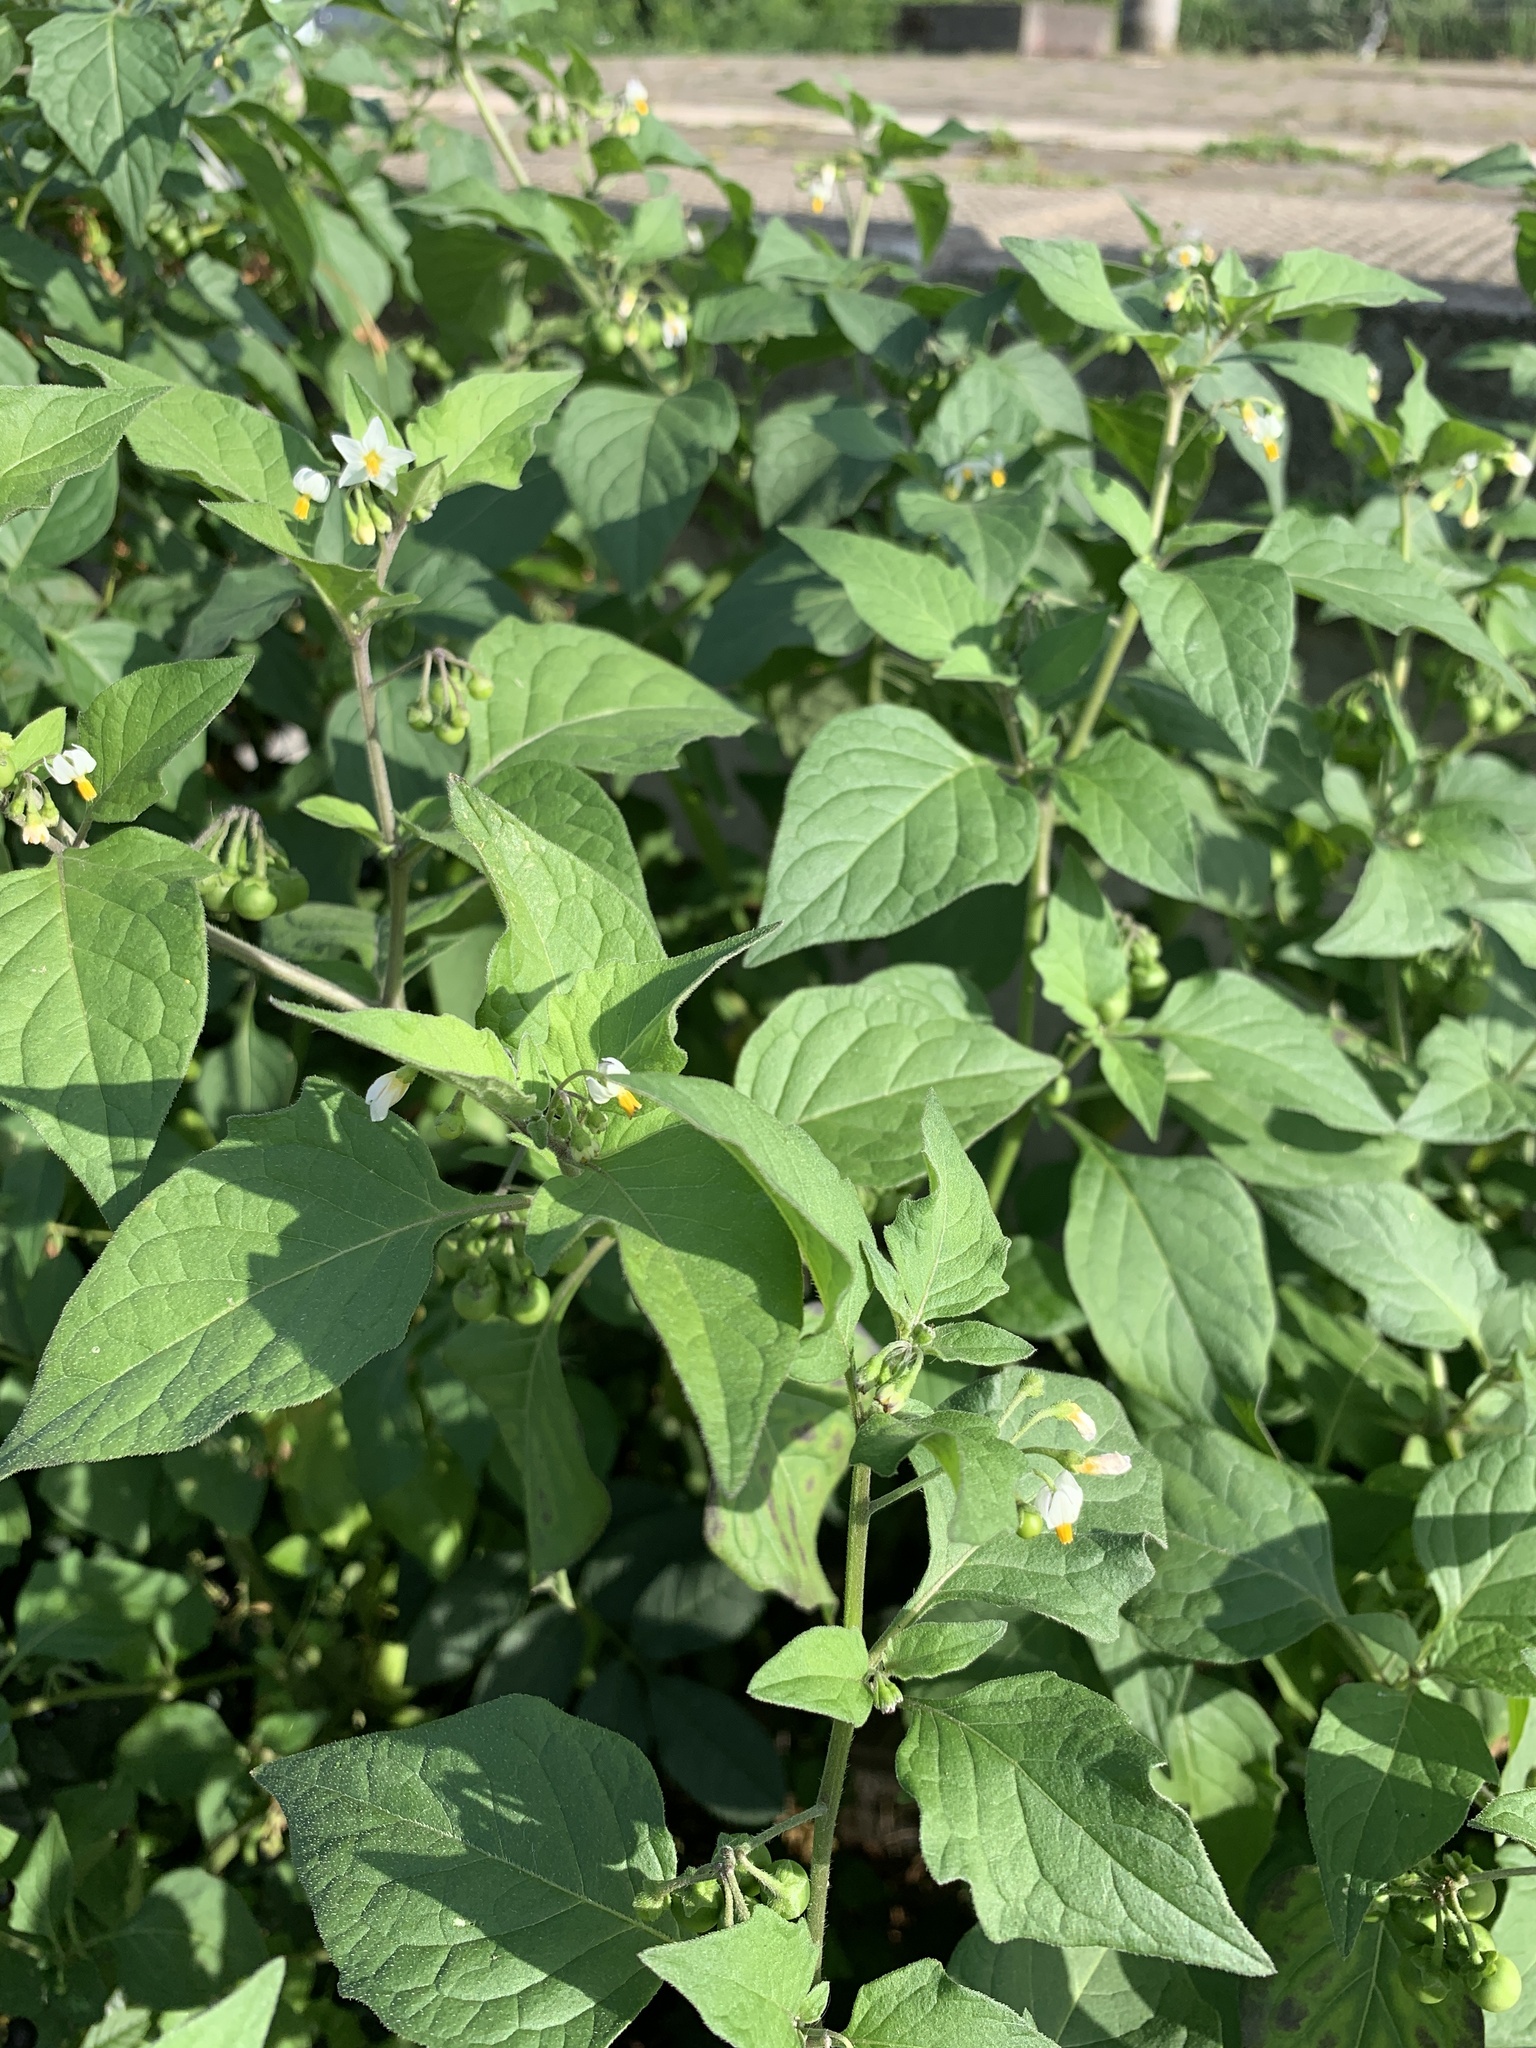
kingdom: Plantae
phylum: Tracheophyta
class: Magnoliopsida
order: Solanales
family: Solanaceae
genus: Solanum
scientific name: Solanum nigrum
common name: Black nightshade
